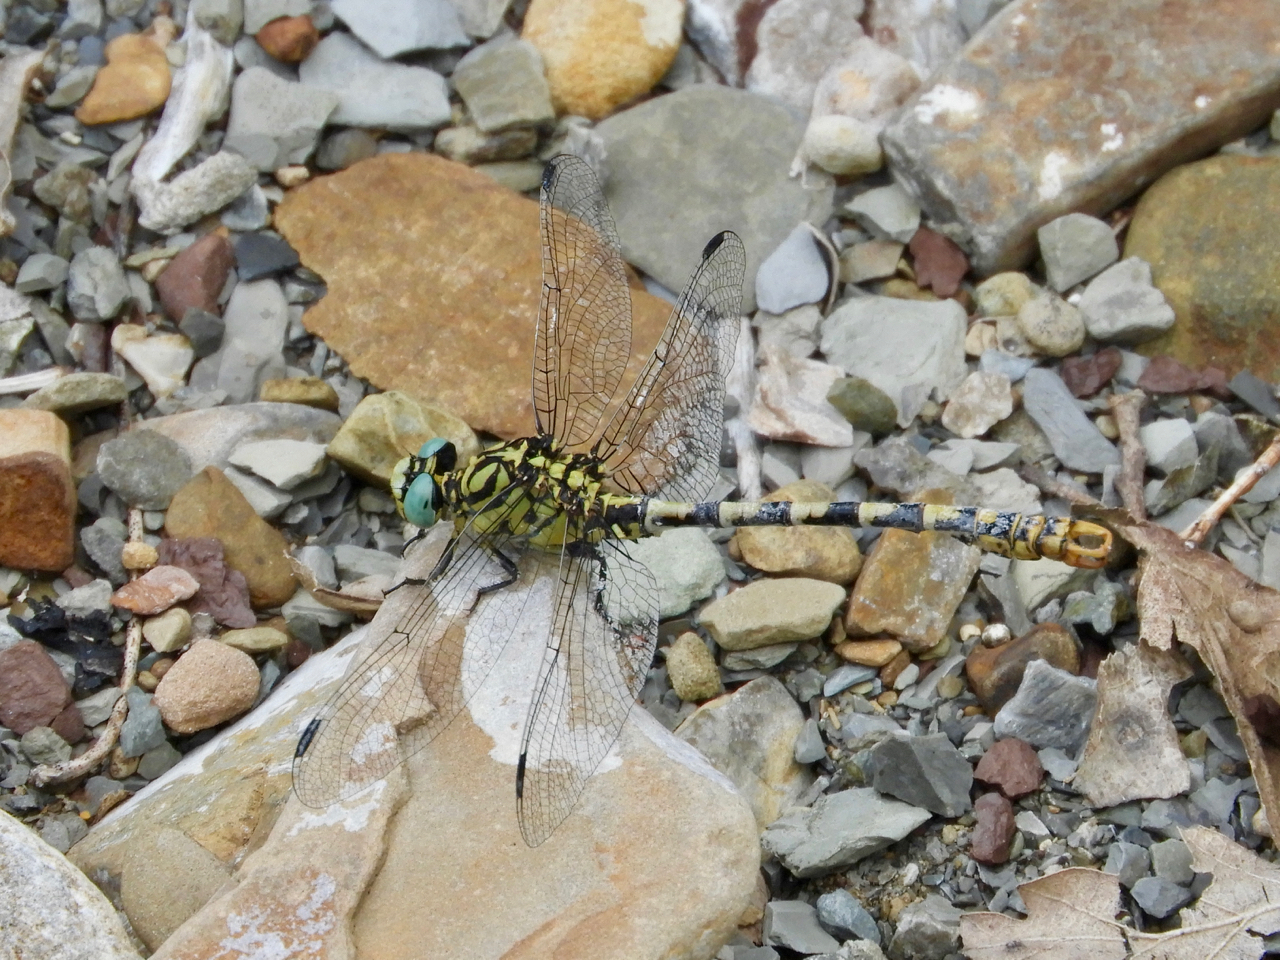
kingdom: Animalia
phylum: Arthropoda
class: Insecta
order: Odonata
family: Gomphidae
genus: Onychogomphus
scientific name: Onychogomphus forcipatus
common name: Small pincertail
